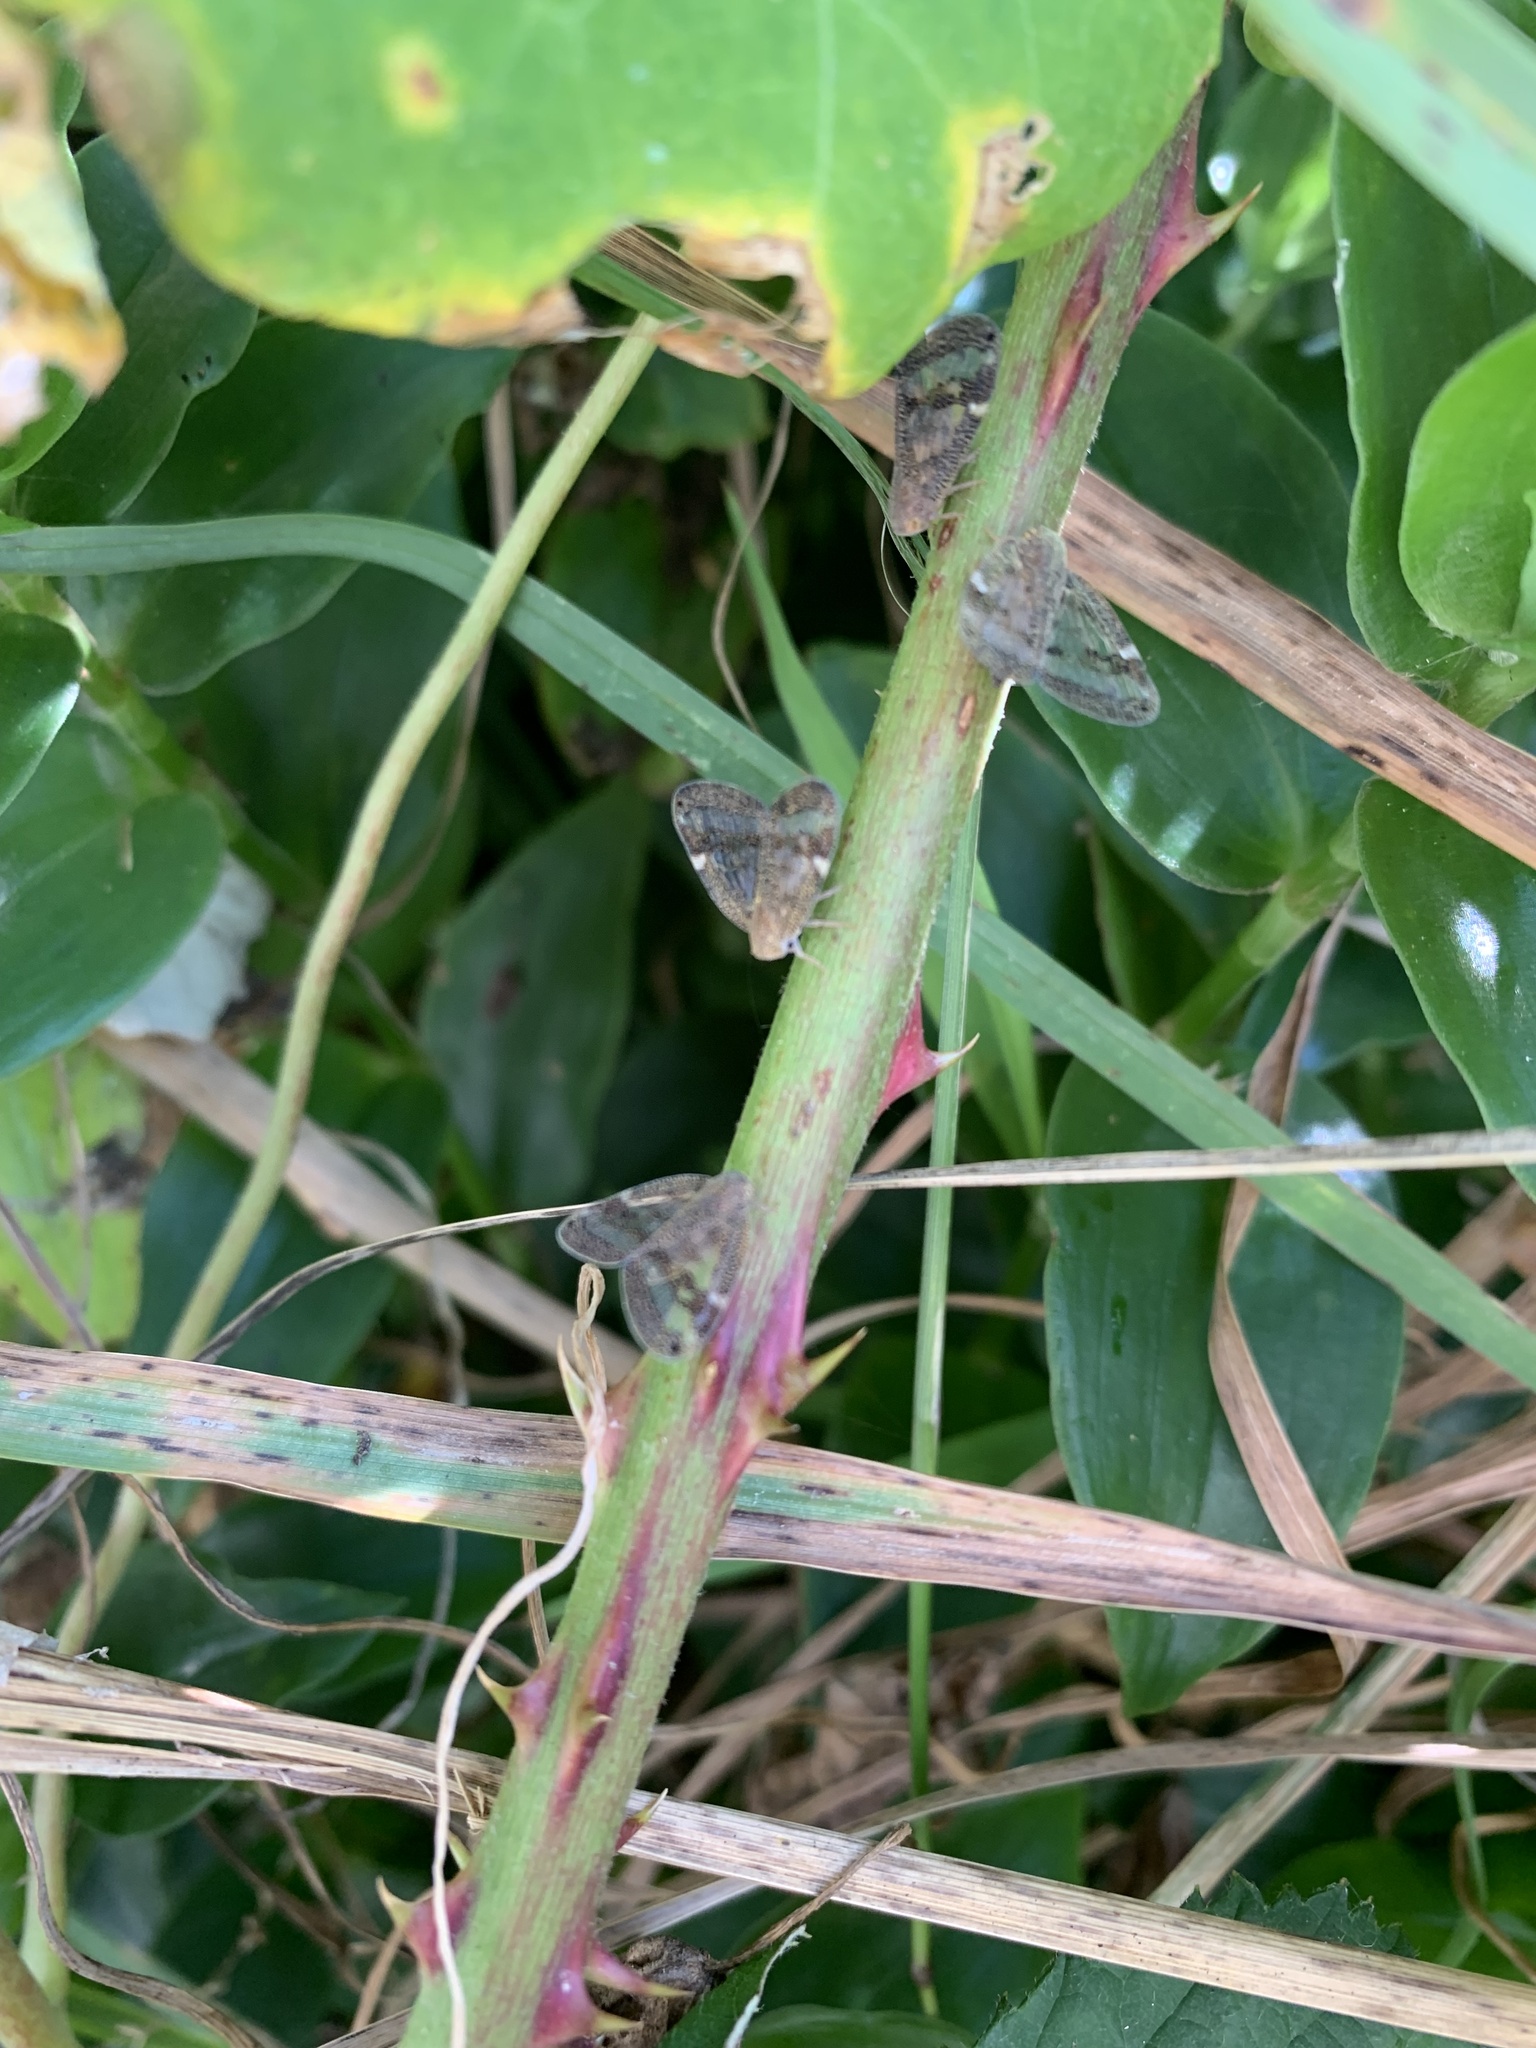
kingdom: Animalia
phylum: Arthropoda
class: Insecta
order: Hemiptera
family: Ricaniidae
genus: Scolypopa
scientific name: Scolypopa australis
